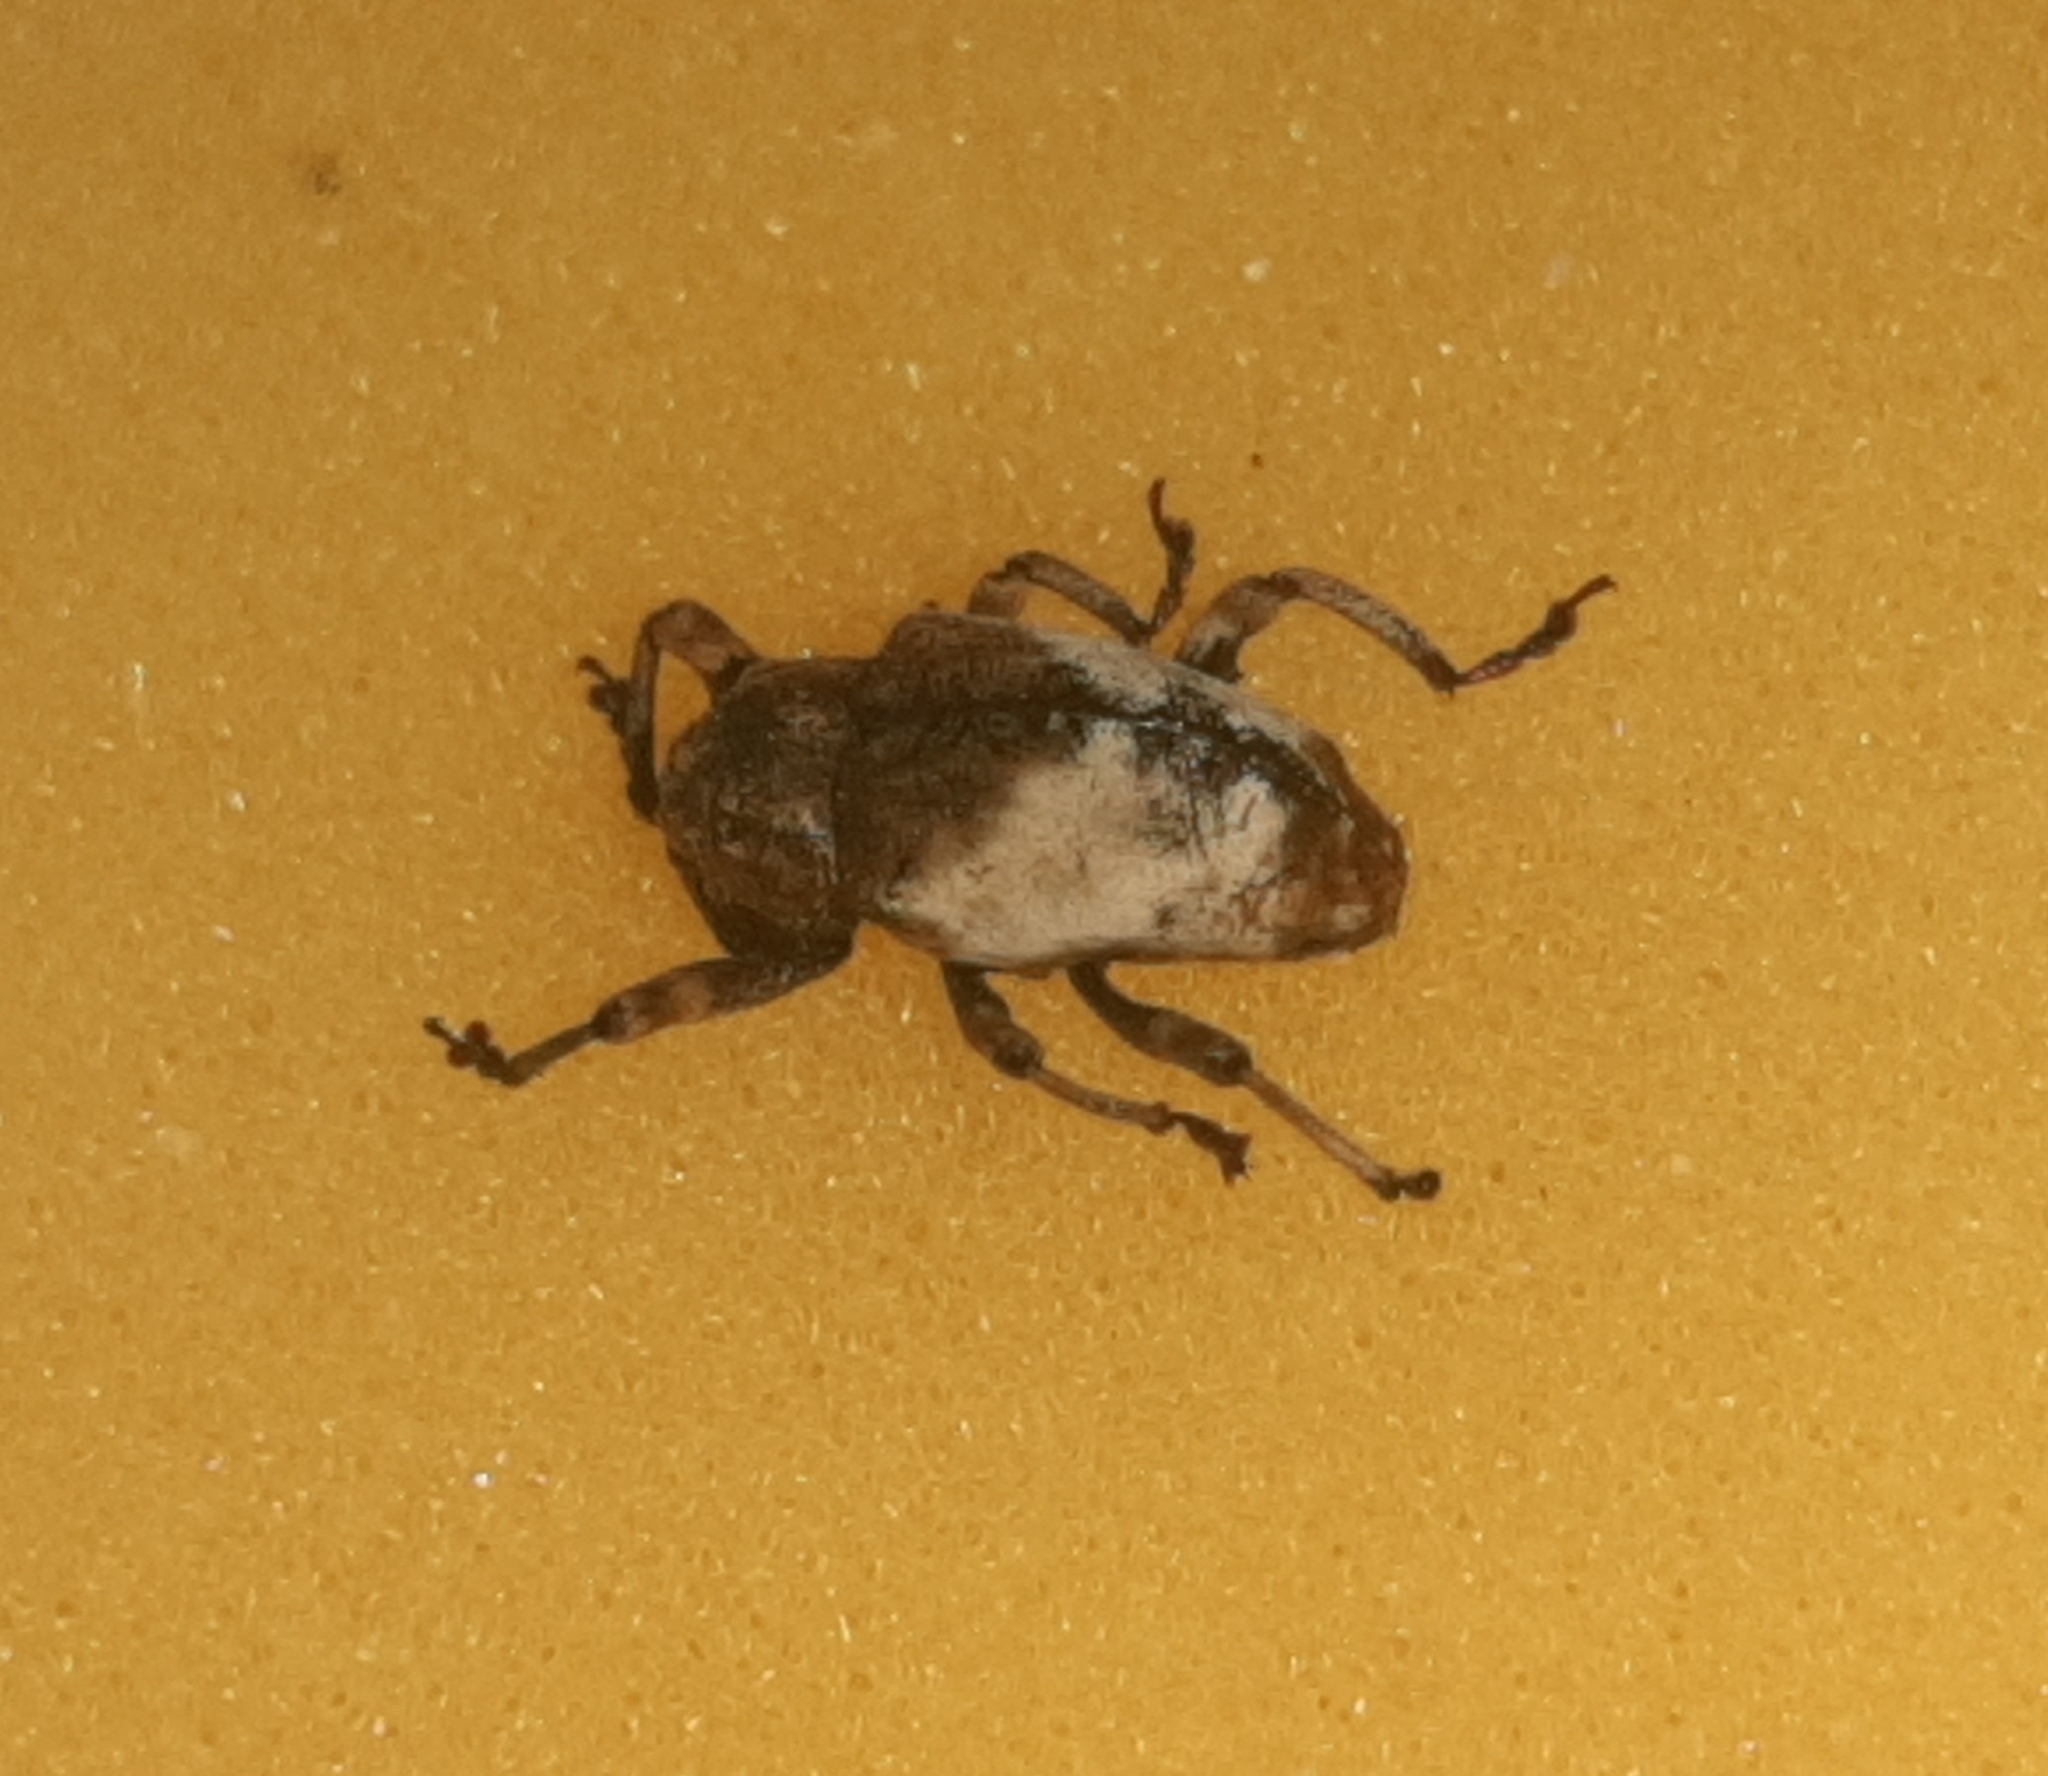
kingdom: Animalia
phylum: Arthropoda
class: Insecta
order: Coleoptera
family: Curculionidae
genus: Cryptorrhynchus
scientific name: Cryptorrhynchus melastomae
